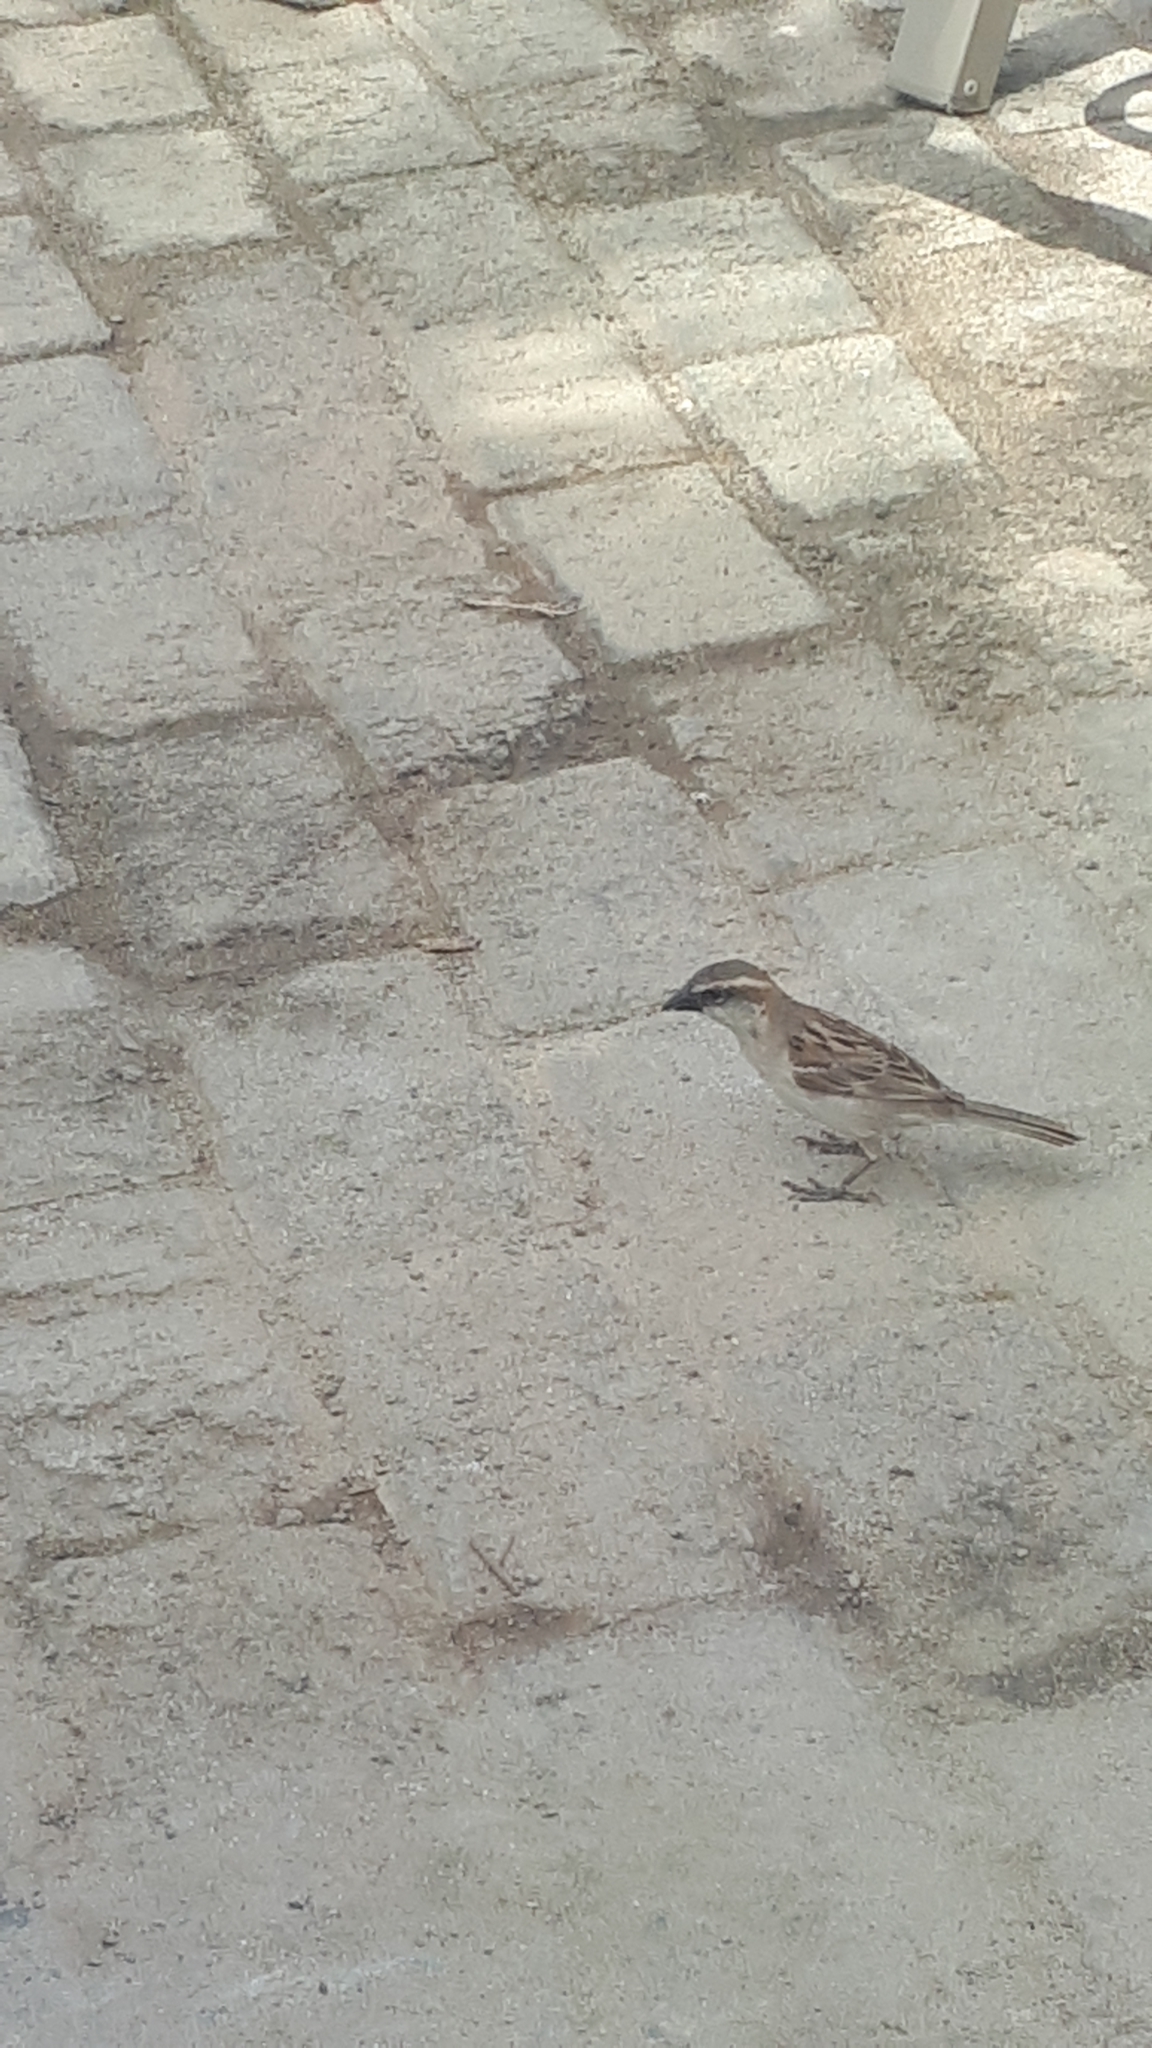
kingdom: Animalia
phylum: Chordata
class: Aves
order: Passeriformes
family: Passeridae
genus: Passer
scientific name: Passer iagoensis
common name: Iago sparrow
